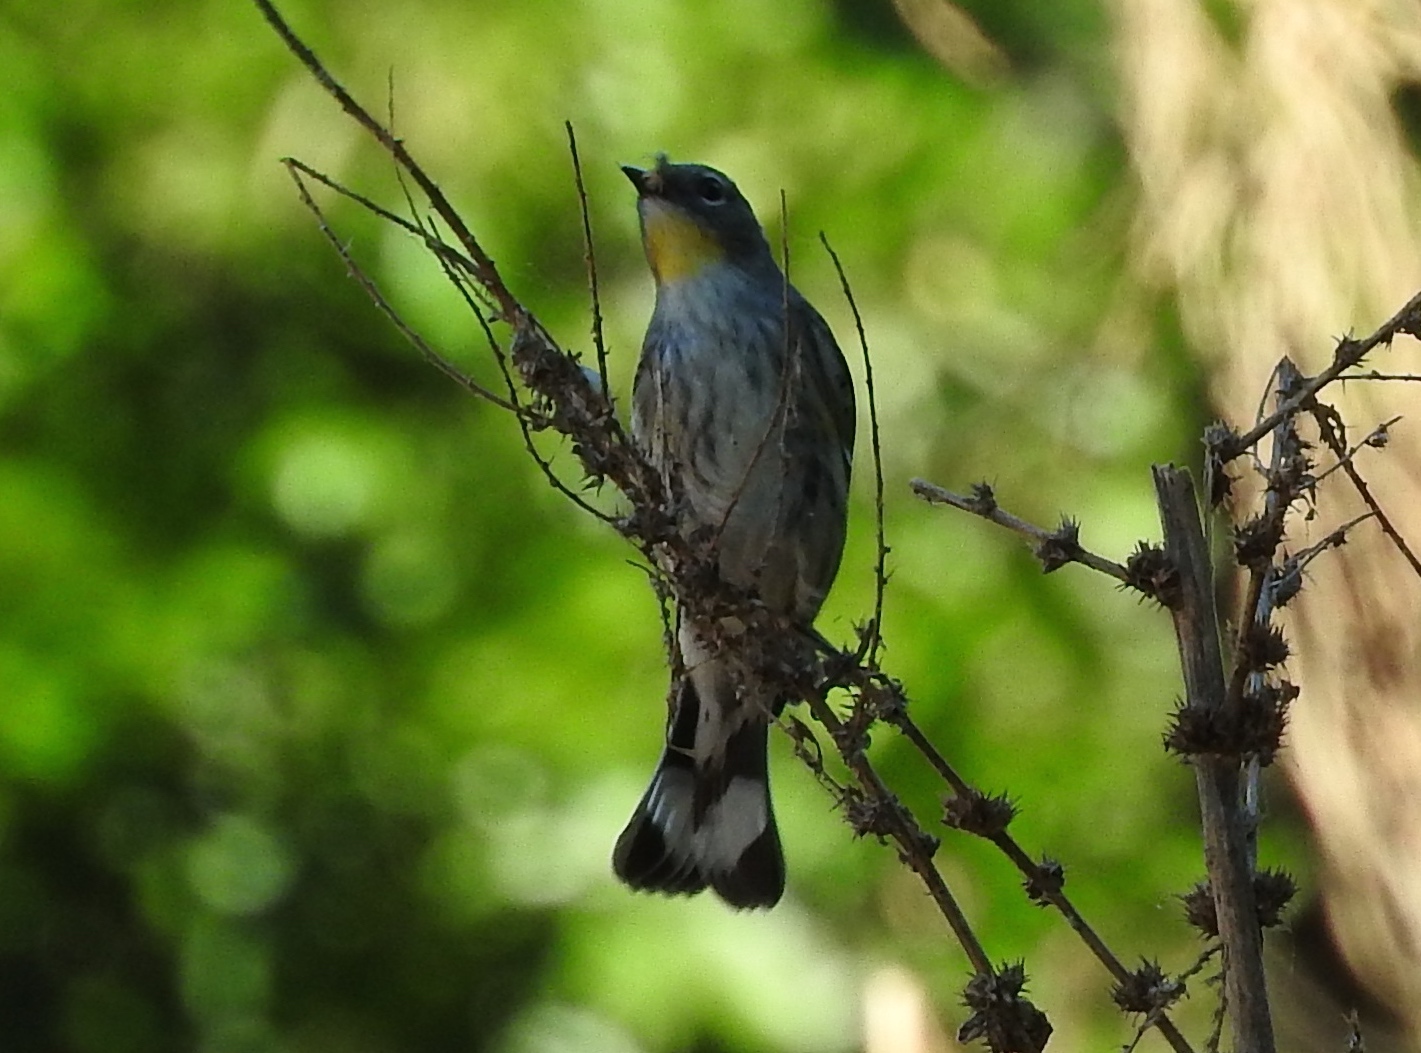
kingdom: Animalia
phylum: Chordata
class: Aves
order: Passeriformes
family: Parulidae
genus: Setophaga
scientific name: Setophaga coronata
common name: Myrtle warbler
